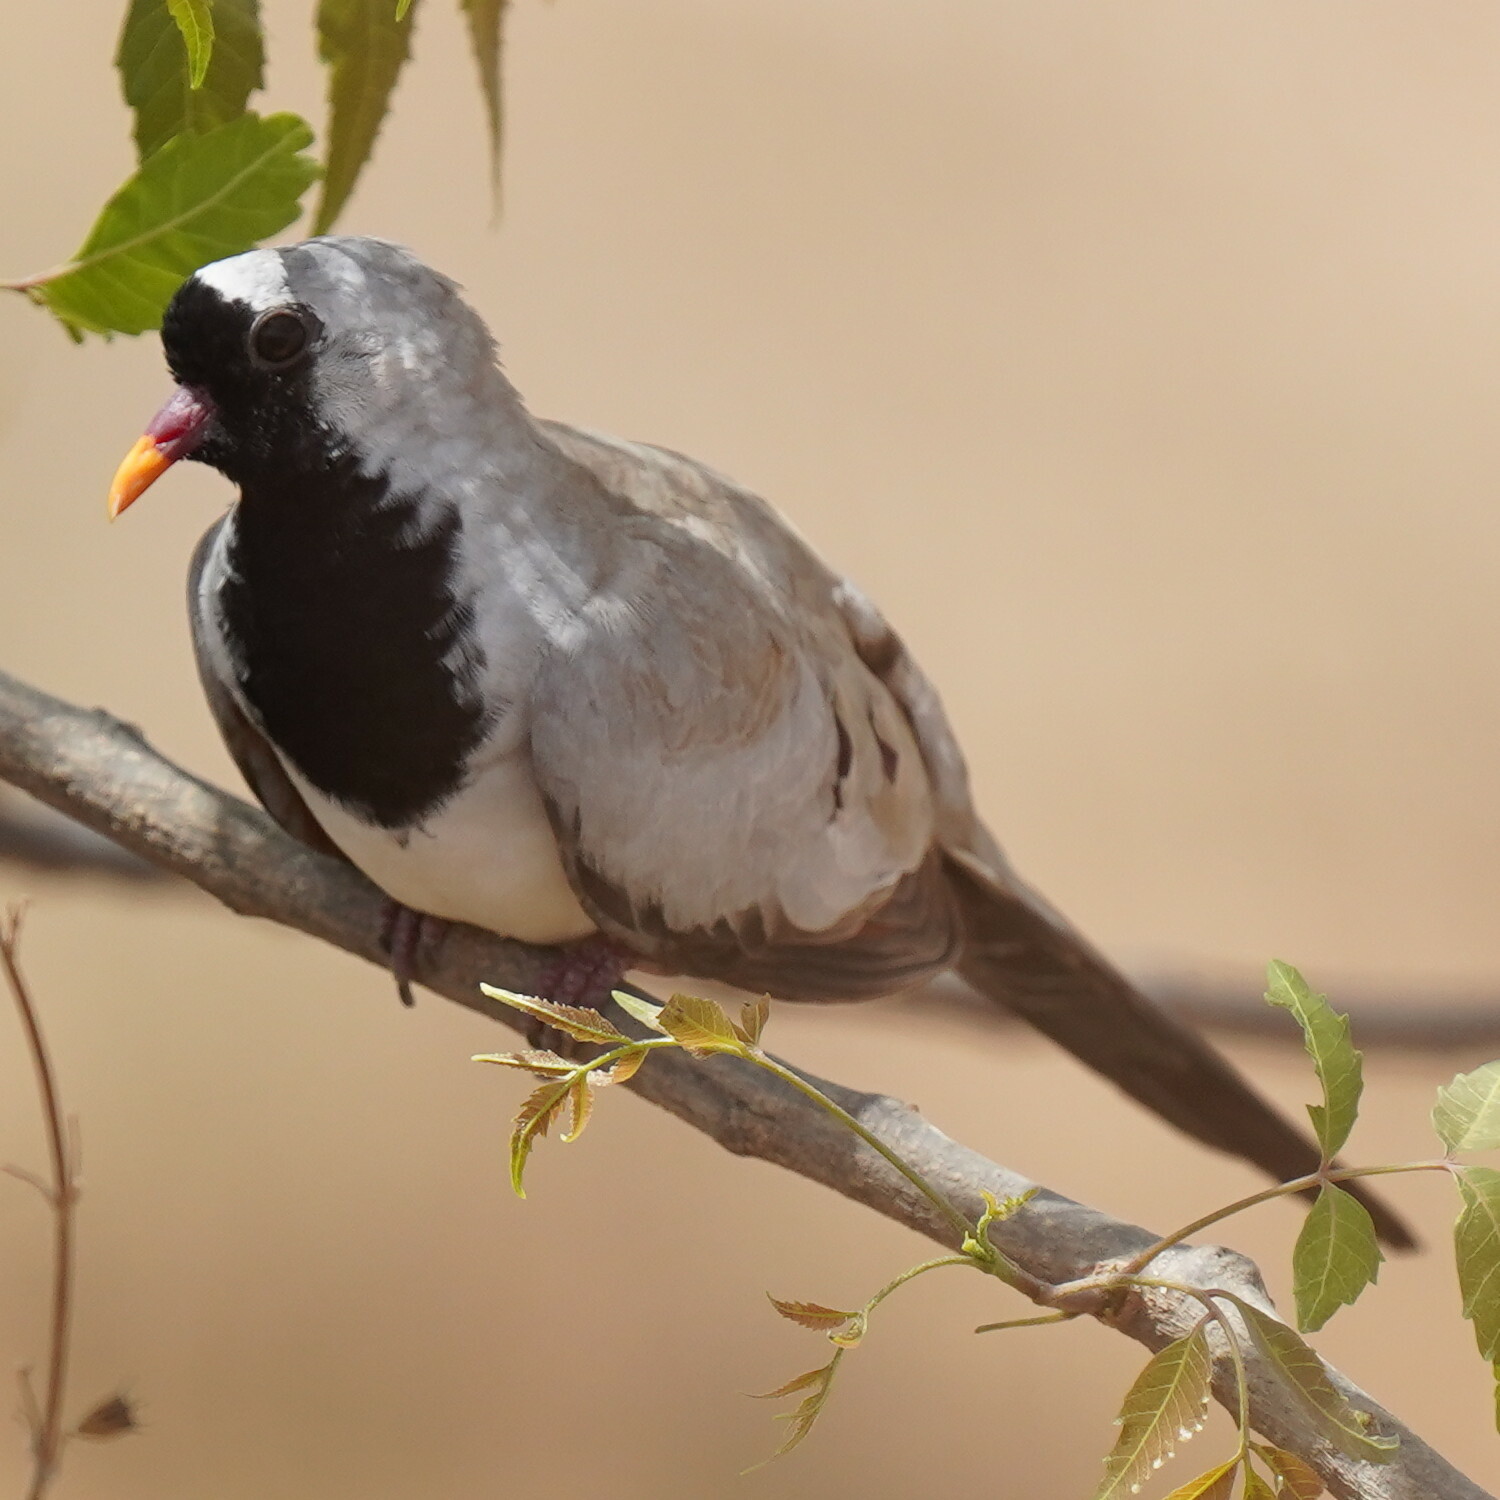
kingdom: Animalia
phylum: Chordata
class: Aves
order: Columbiformes
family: Columbidae
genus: Oena
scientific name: Oena capensis
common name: Namaqua dove
